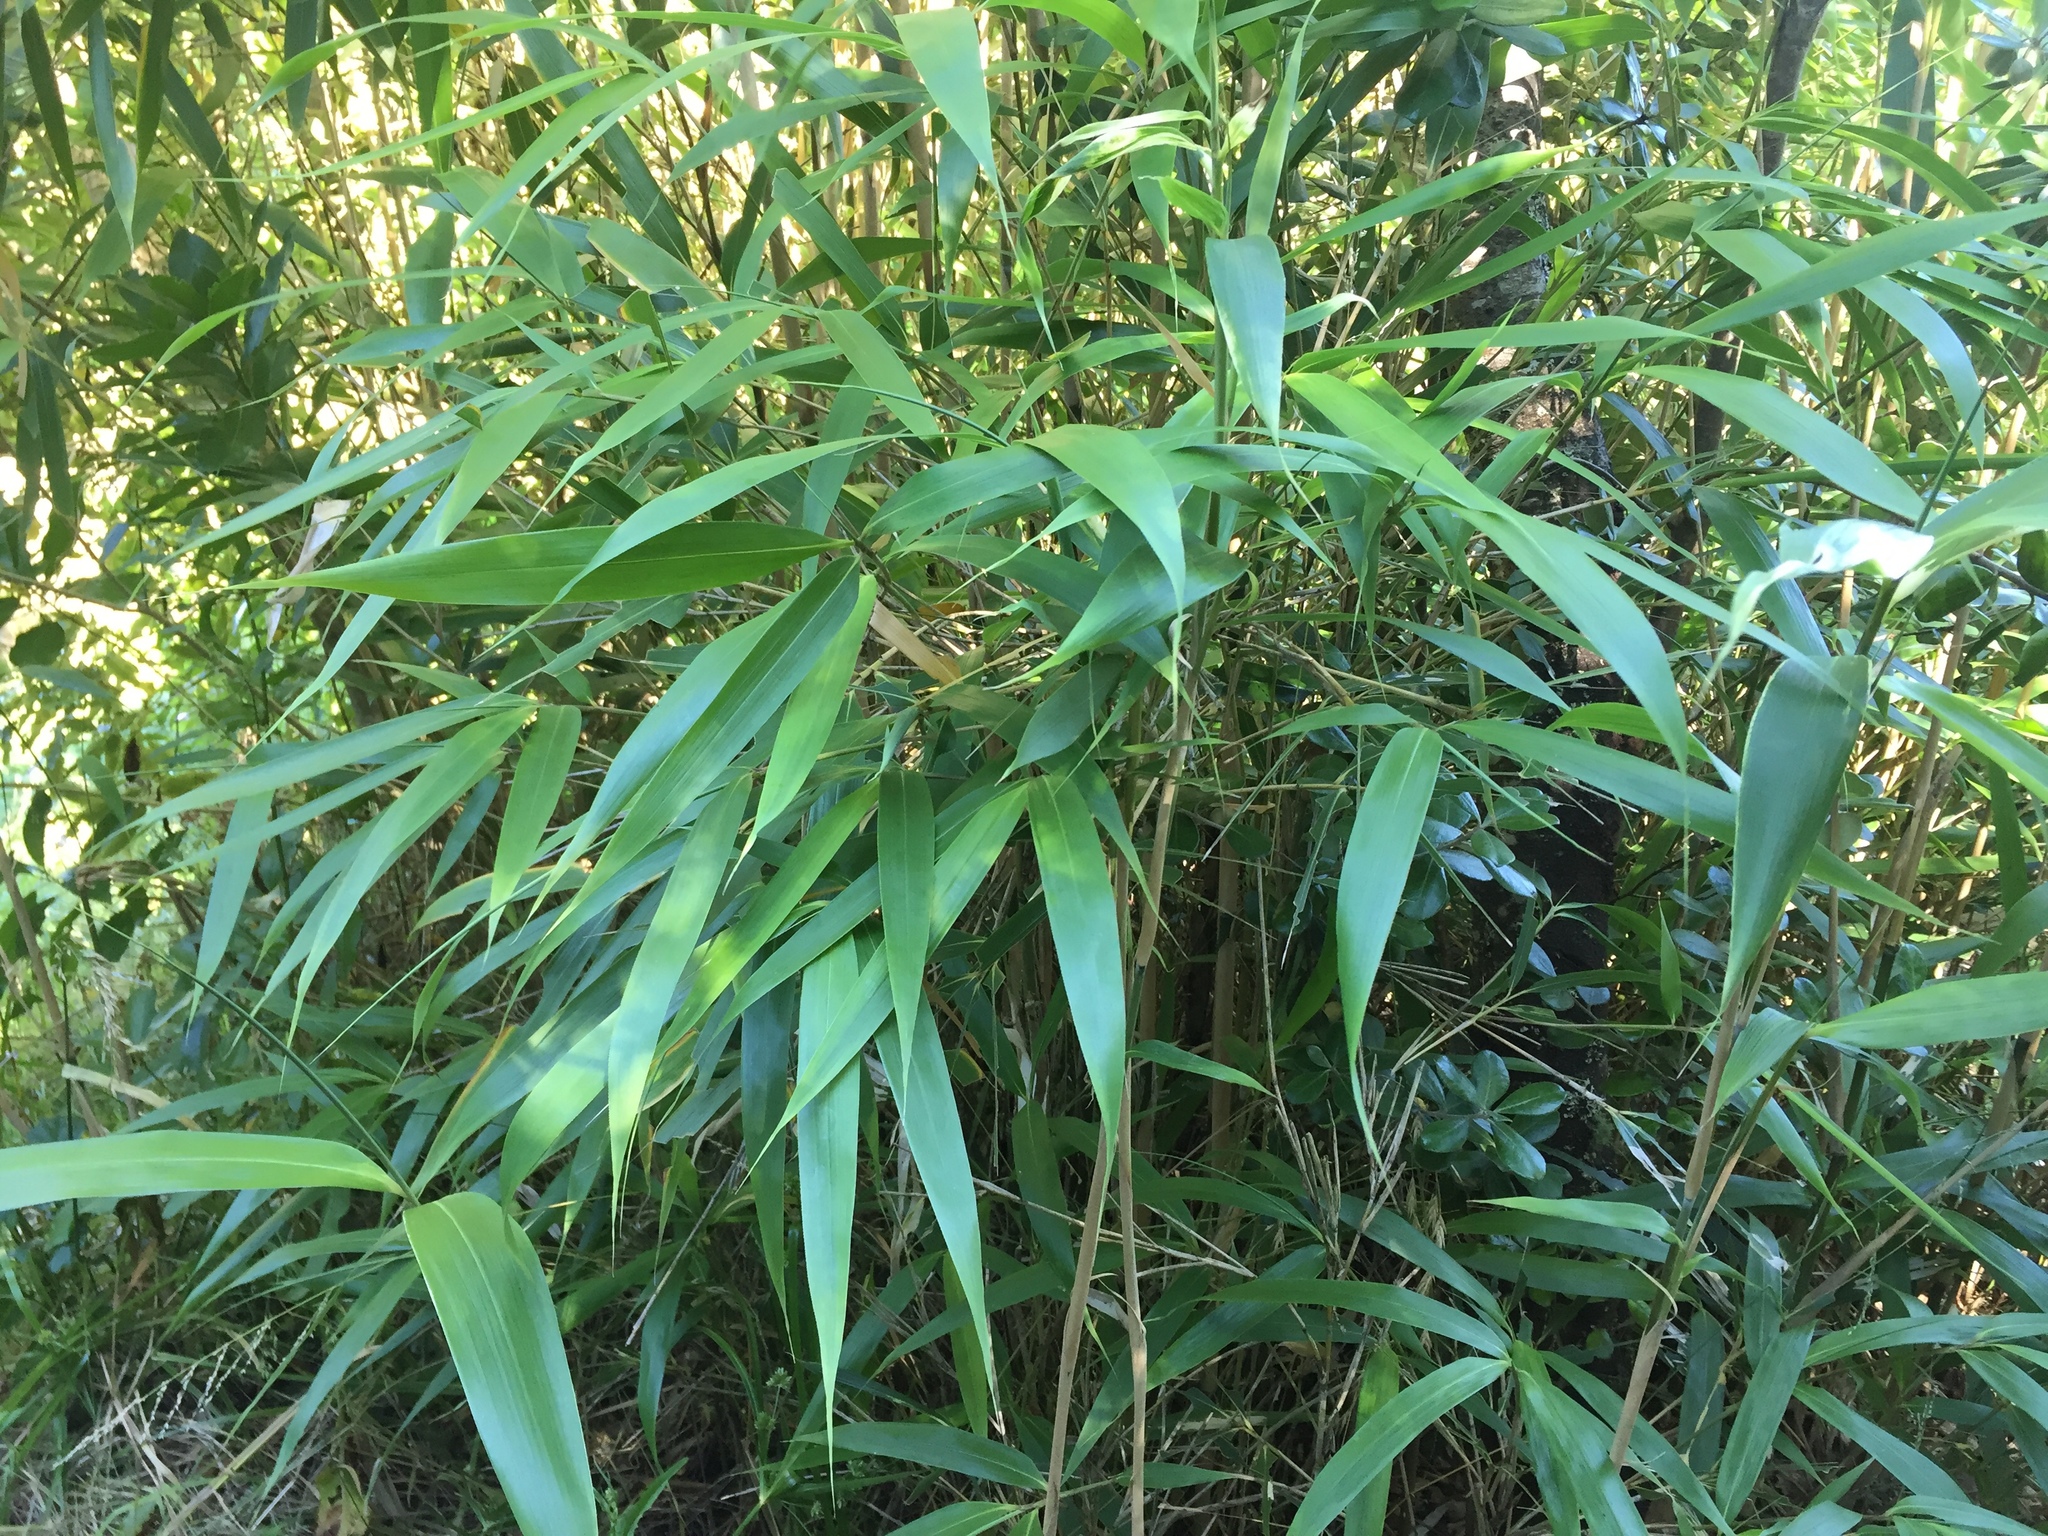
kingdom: Plantae
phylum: Tracheophyta
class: Liliopsida
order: Poales
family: Poaceae
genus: Pseudosasa
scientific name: Pseudosasa japonica
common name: Arrow bamboo
